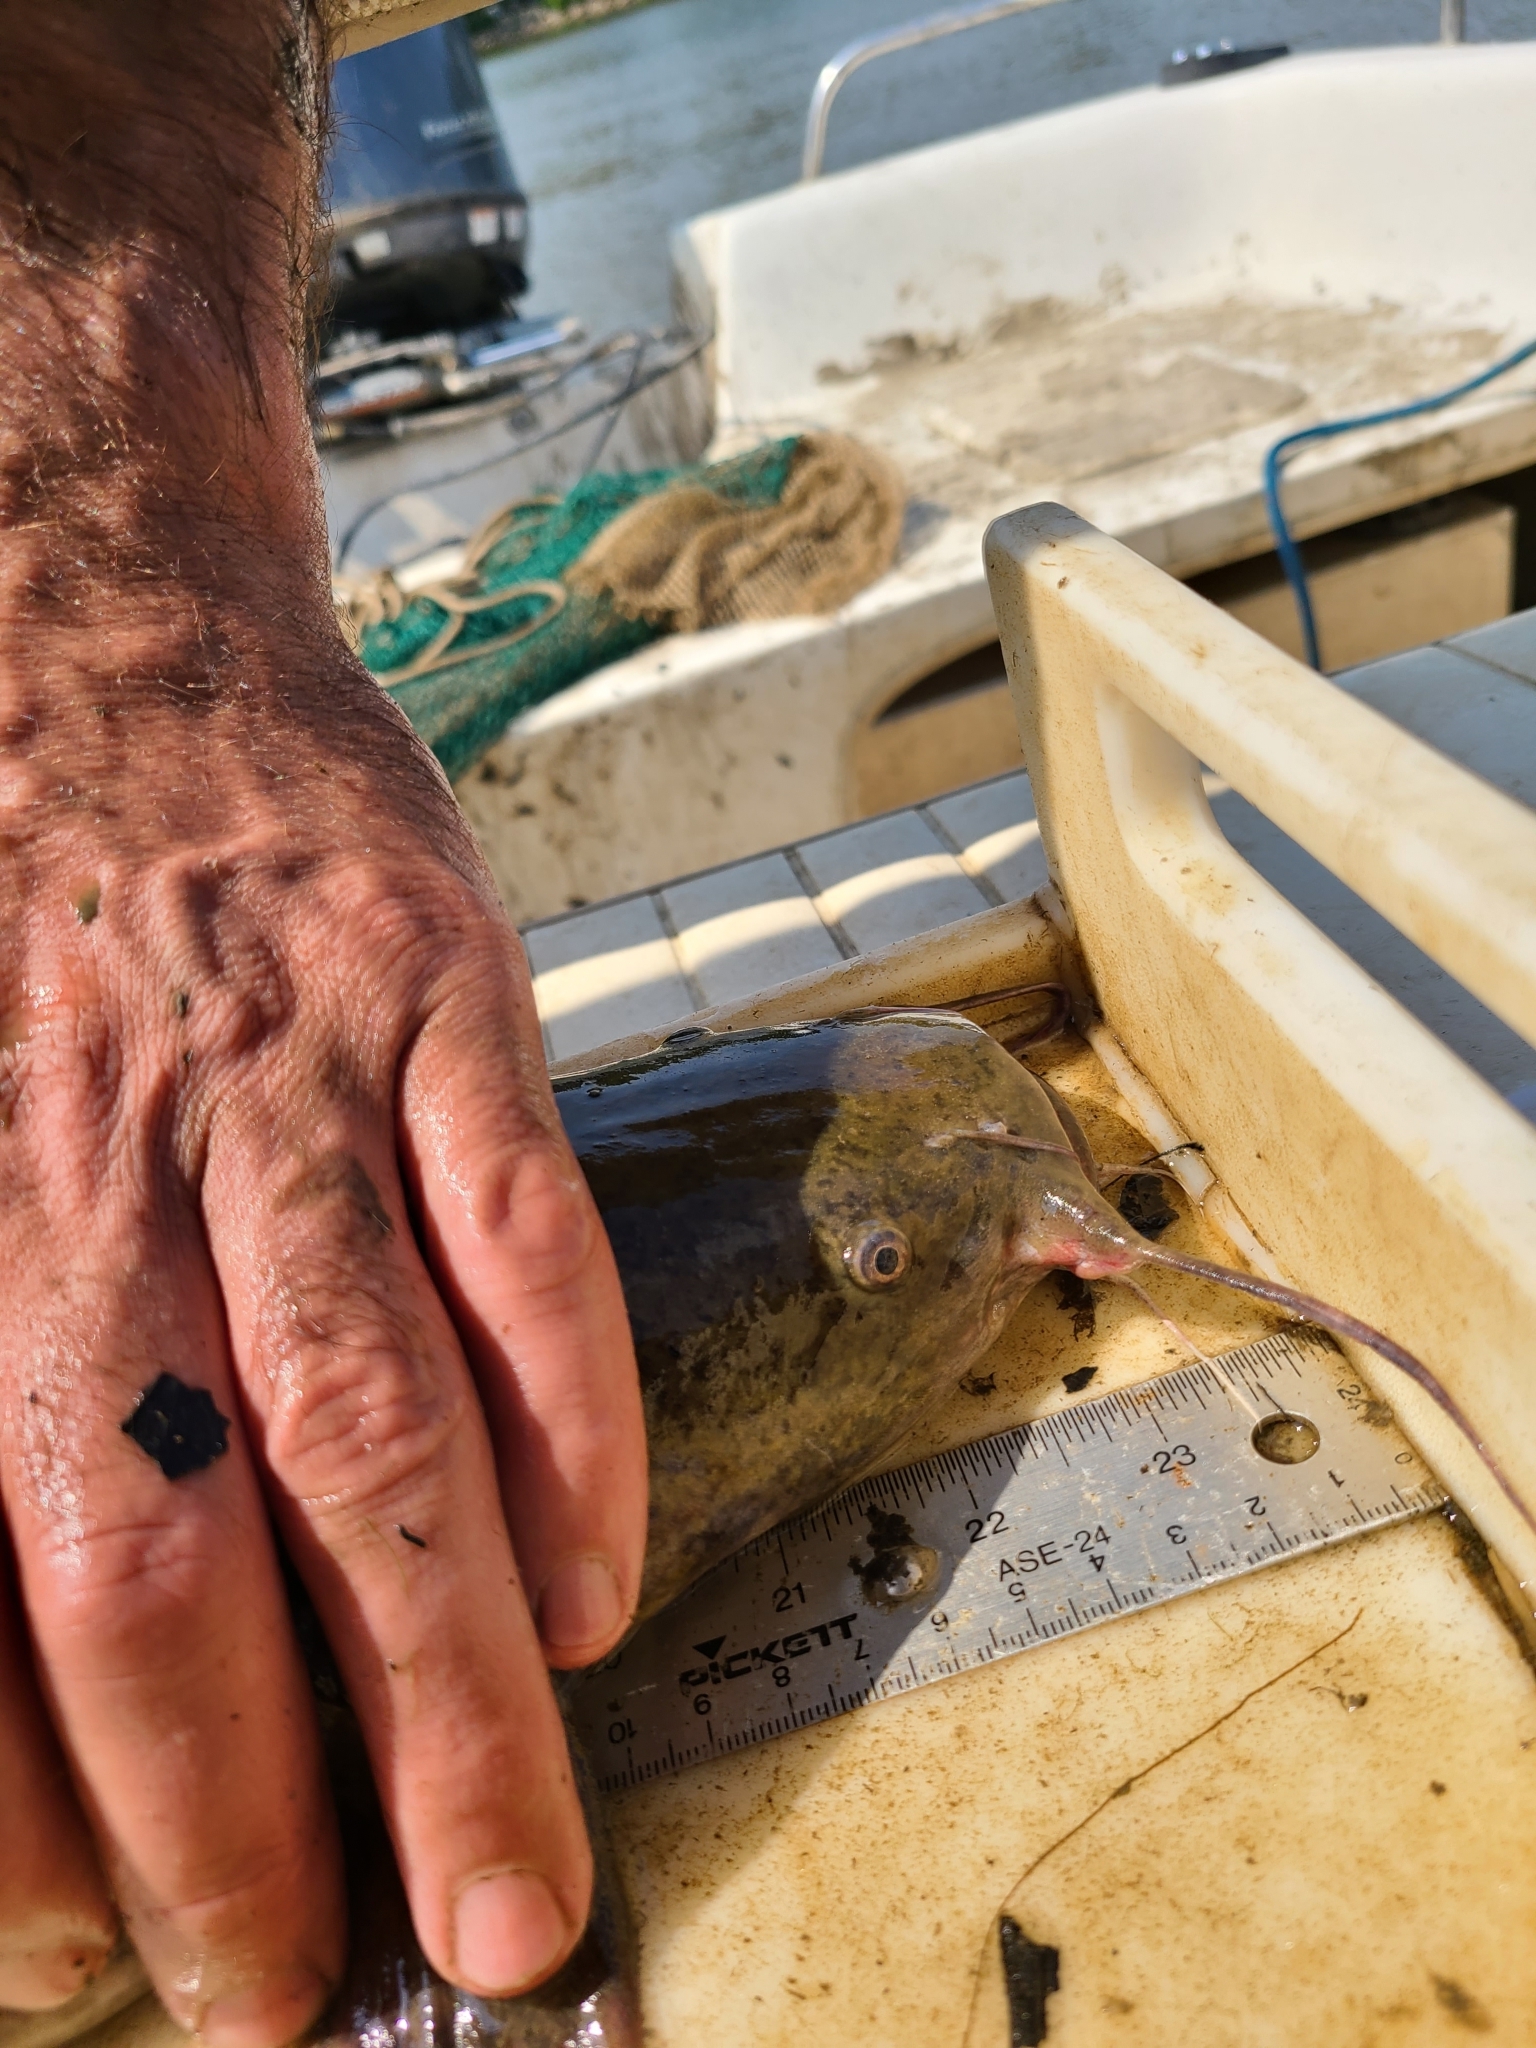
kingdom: Animalia
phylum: Chordata
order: Siluriformes
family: Ictaluridae
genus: Pylodictis
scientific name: Pylodictis olivaris
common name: Flathead catfish
